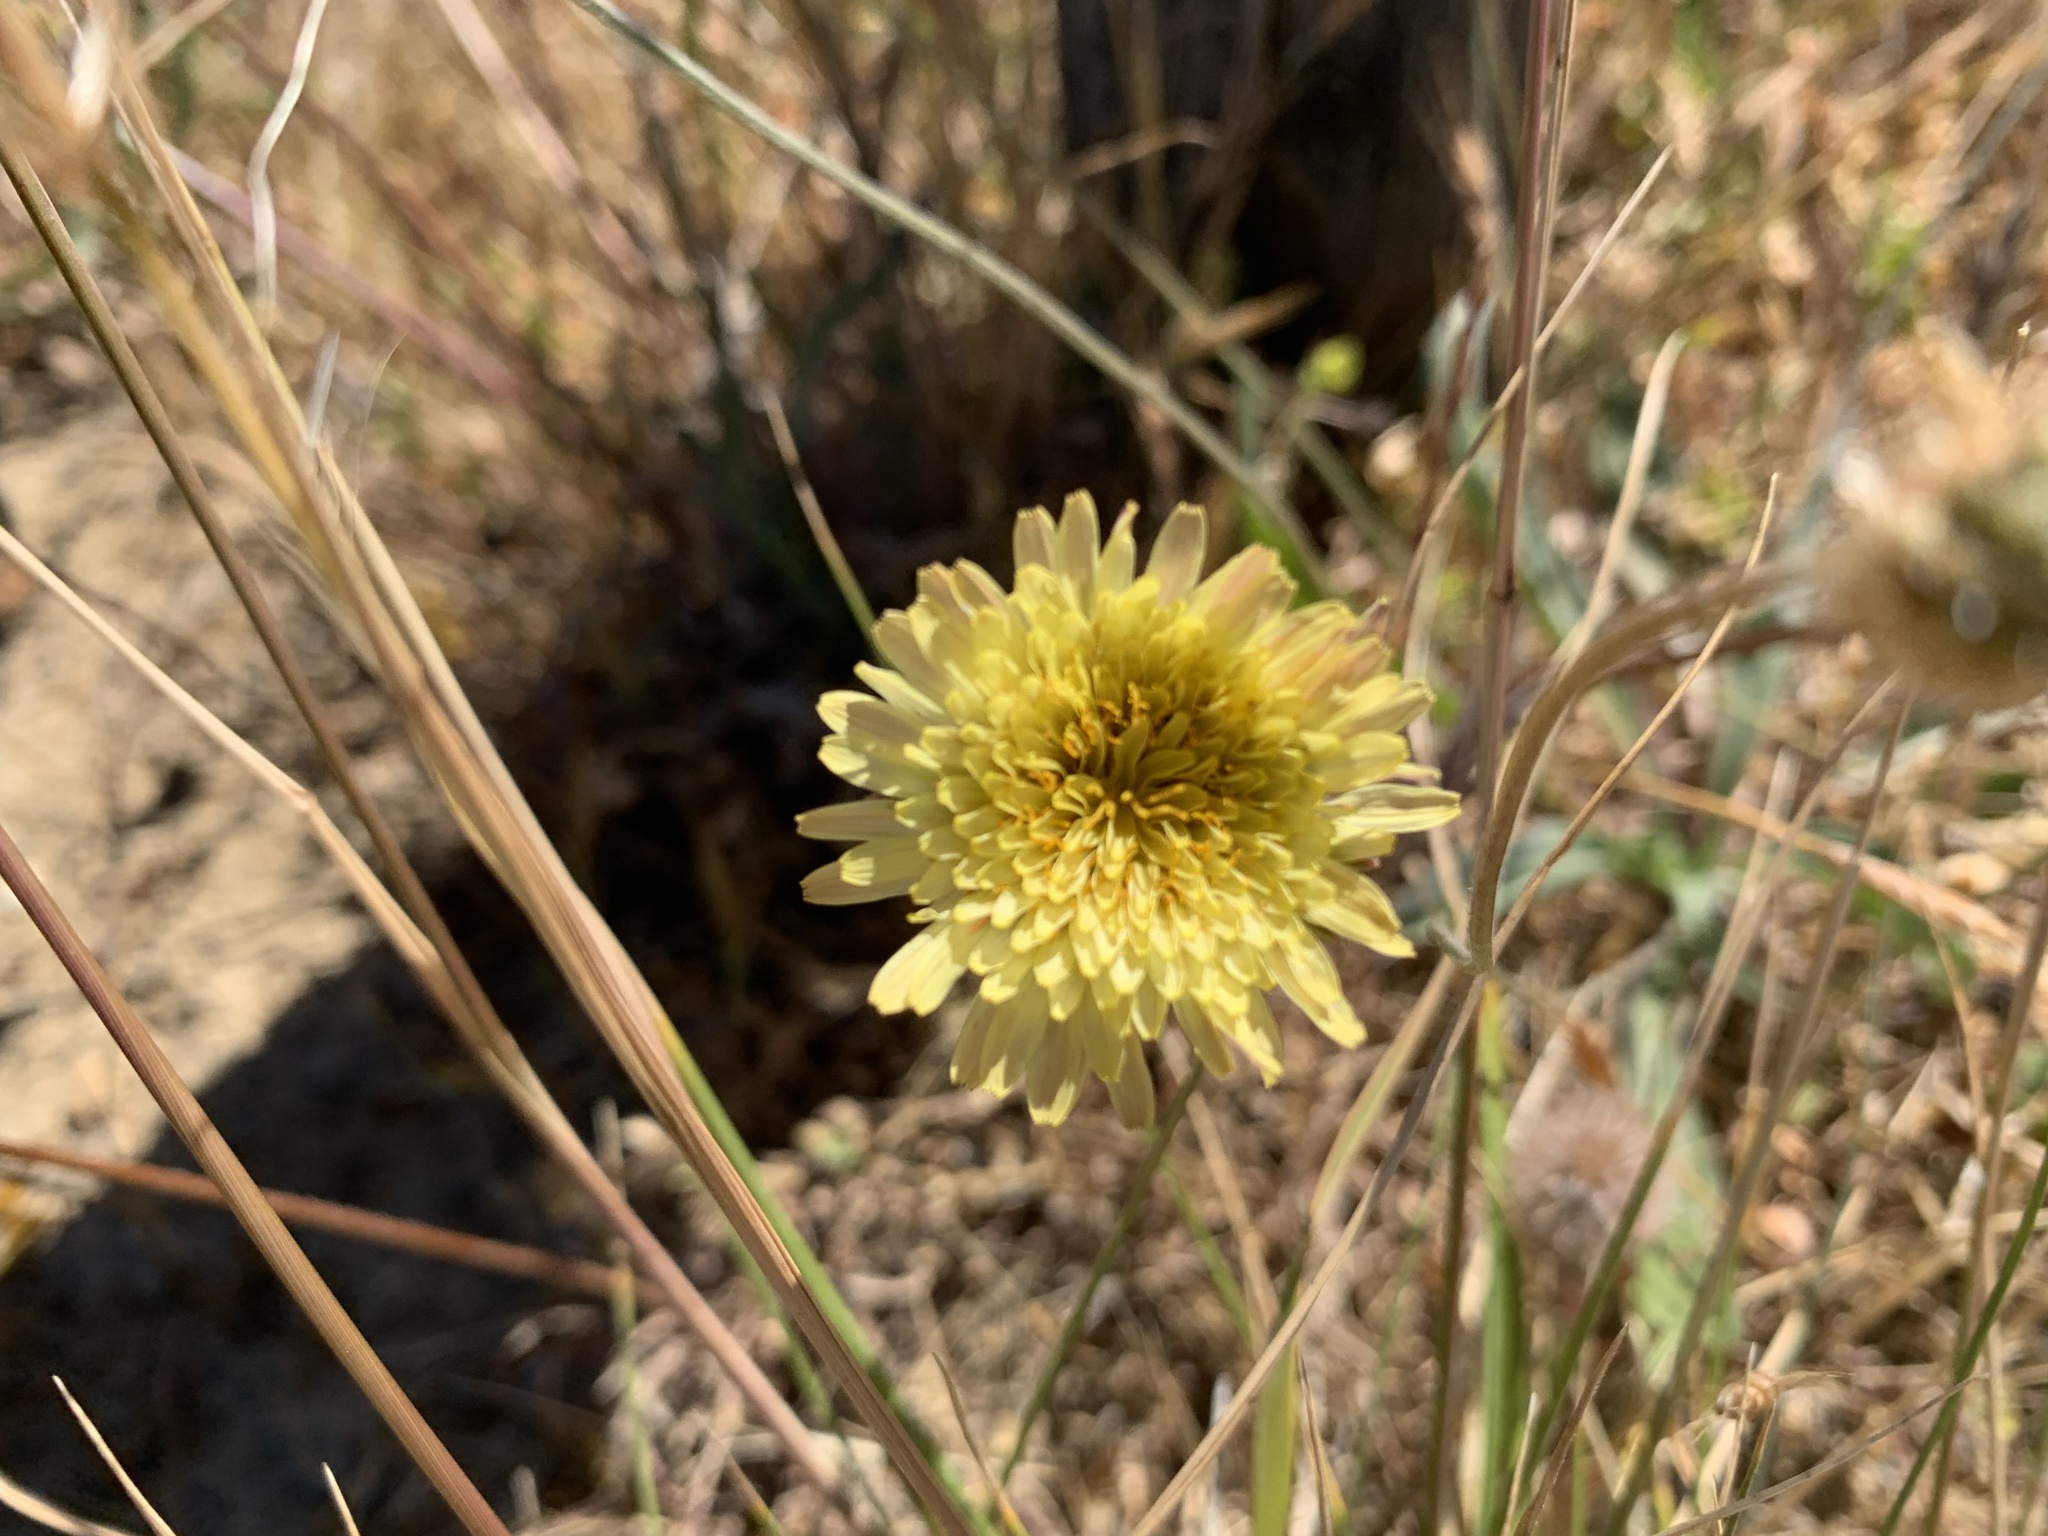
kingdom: Plantae
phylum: Tracheophyta
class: Magnoliopsida
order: Asterales
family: Asteraceae
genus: Agoseris
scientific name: Agoseris grandiflora
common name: Grassland agoseris
